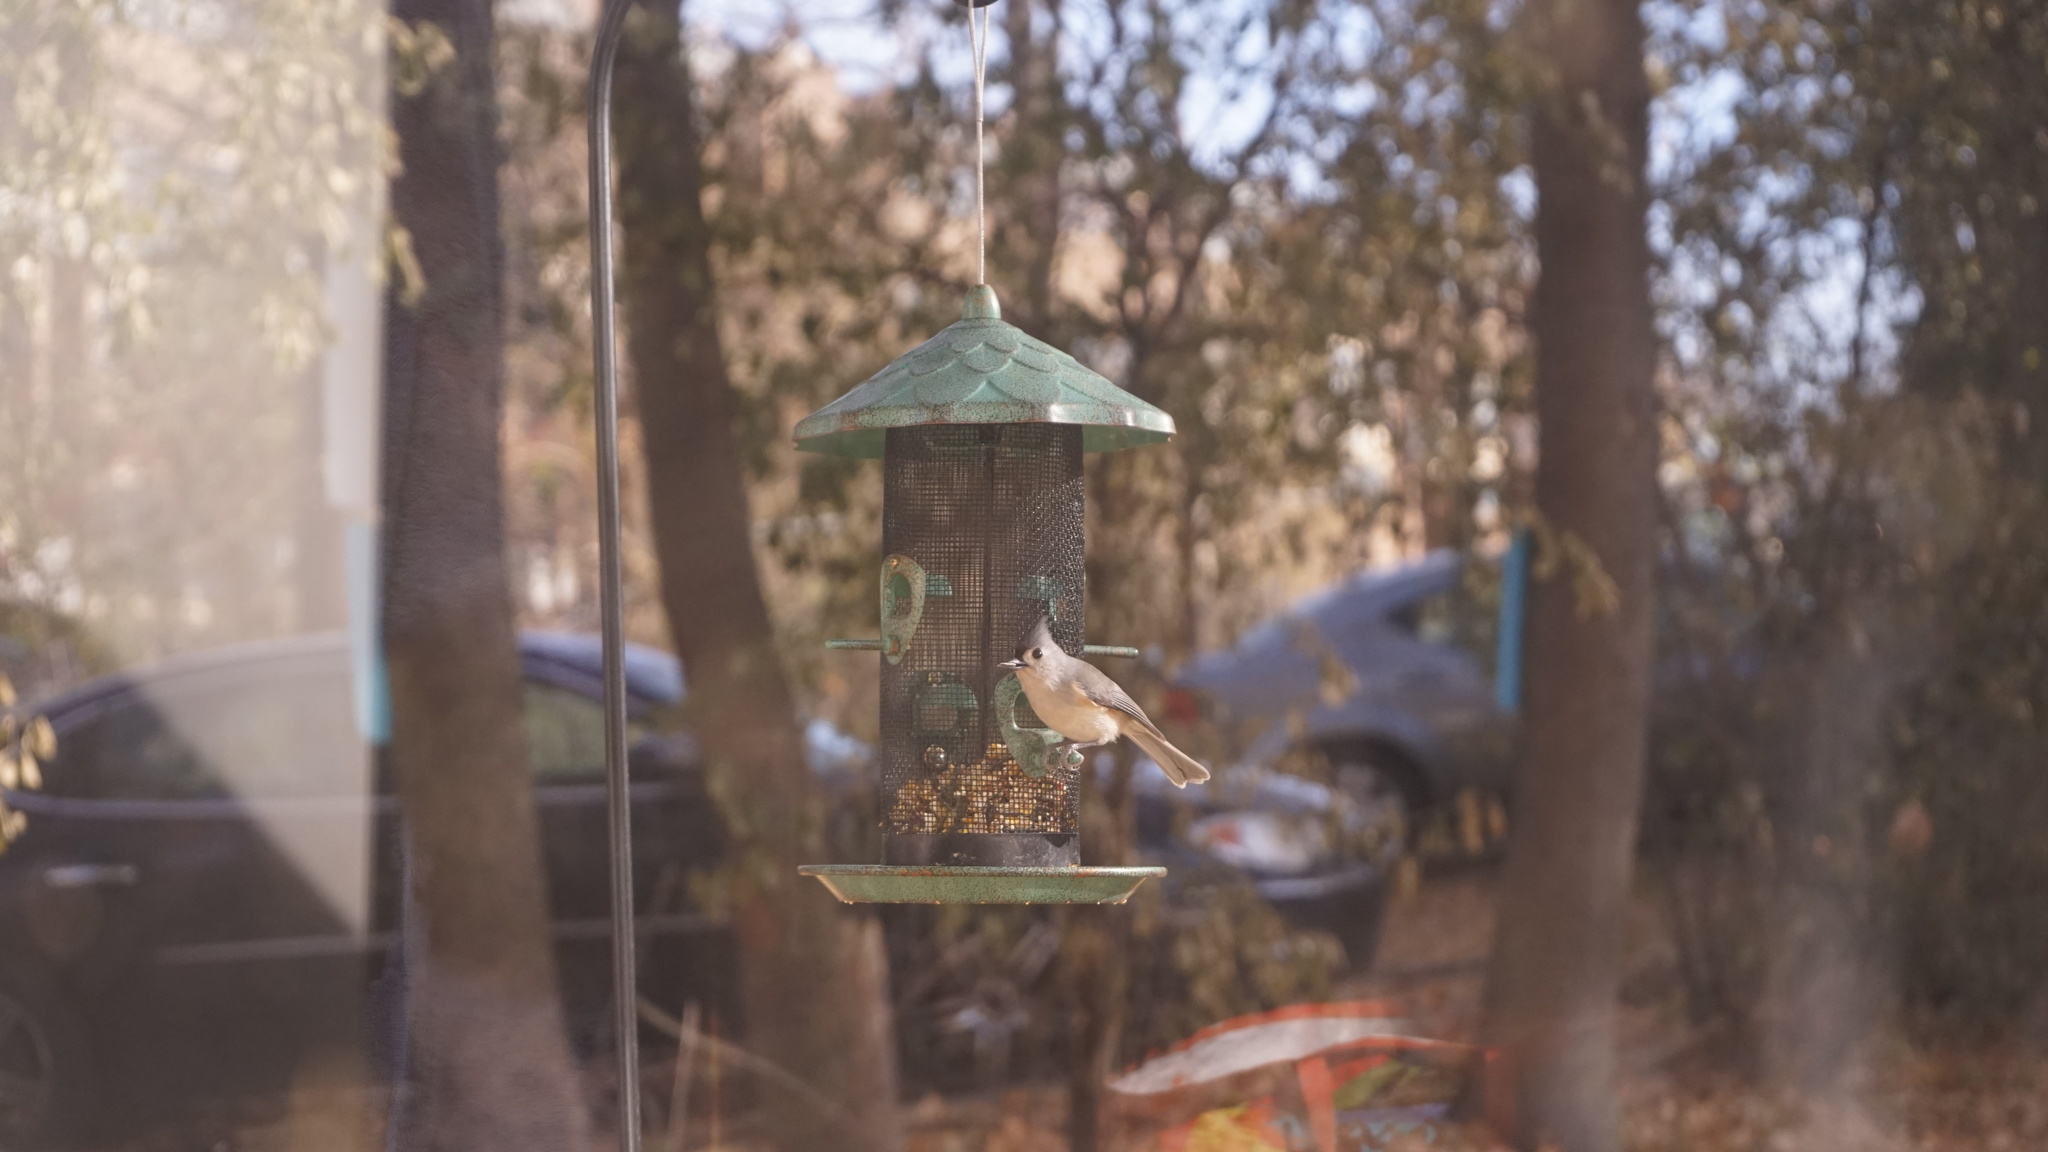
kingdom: Animalia
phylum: Chordata
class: Aves
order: Passeriformes
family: Paridae
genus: Baeolophus
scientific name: Baeolophus bicolor
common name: Tufted titmouse
